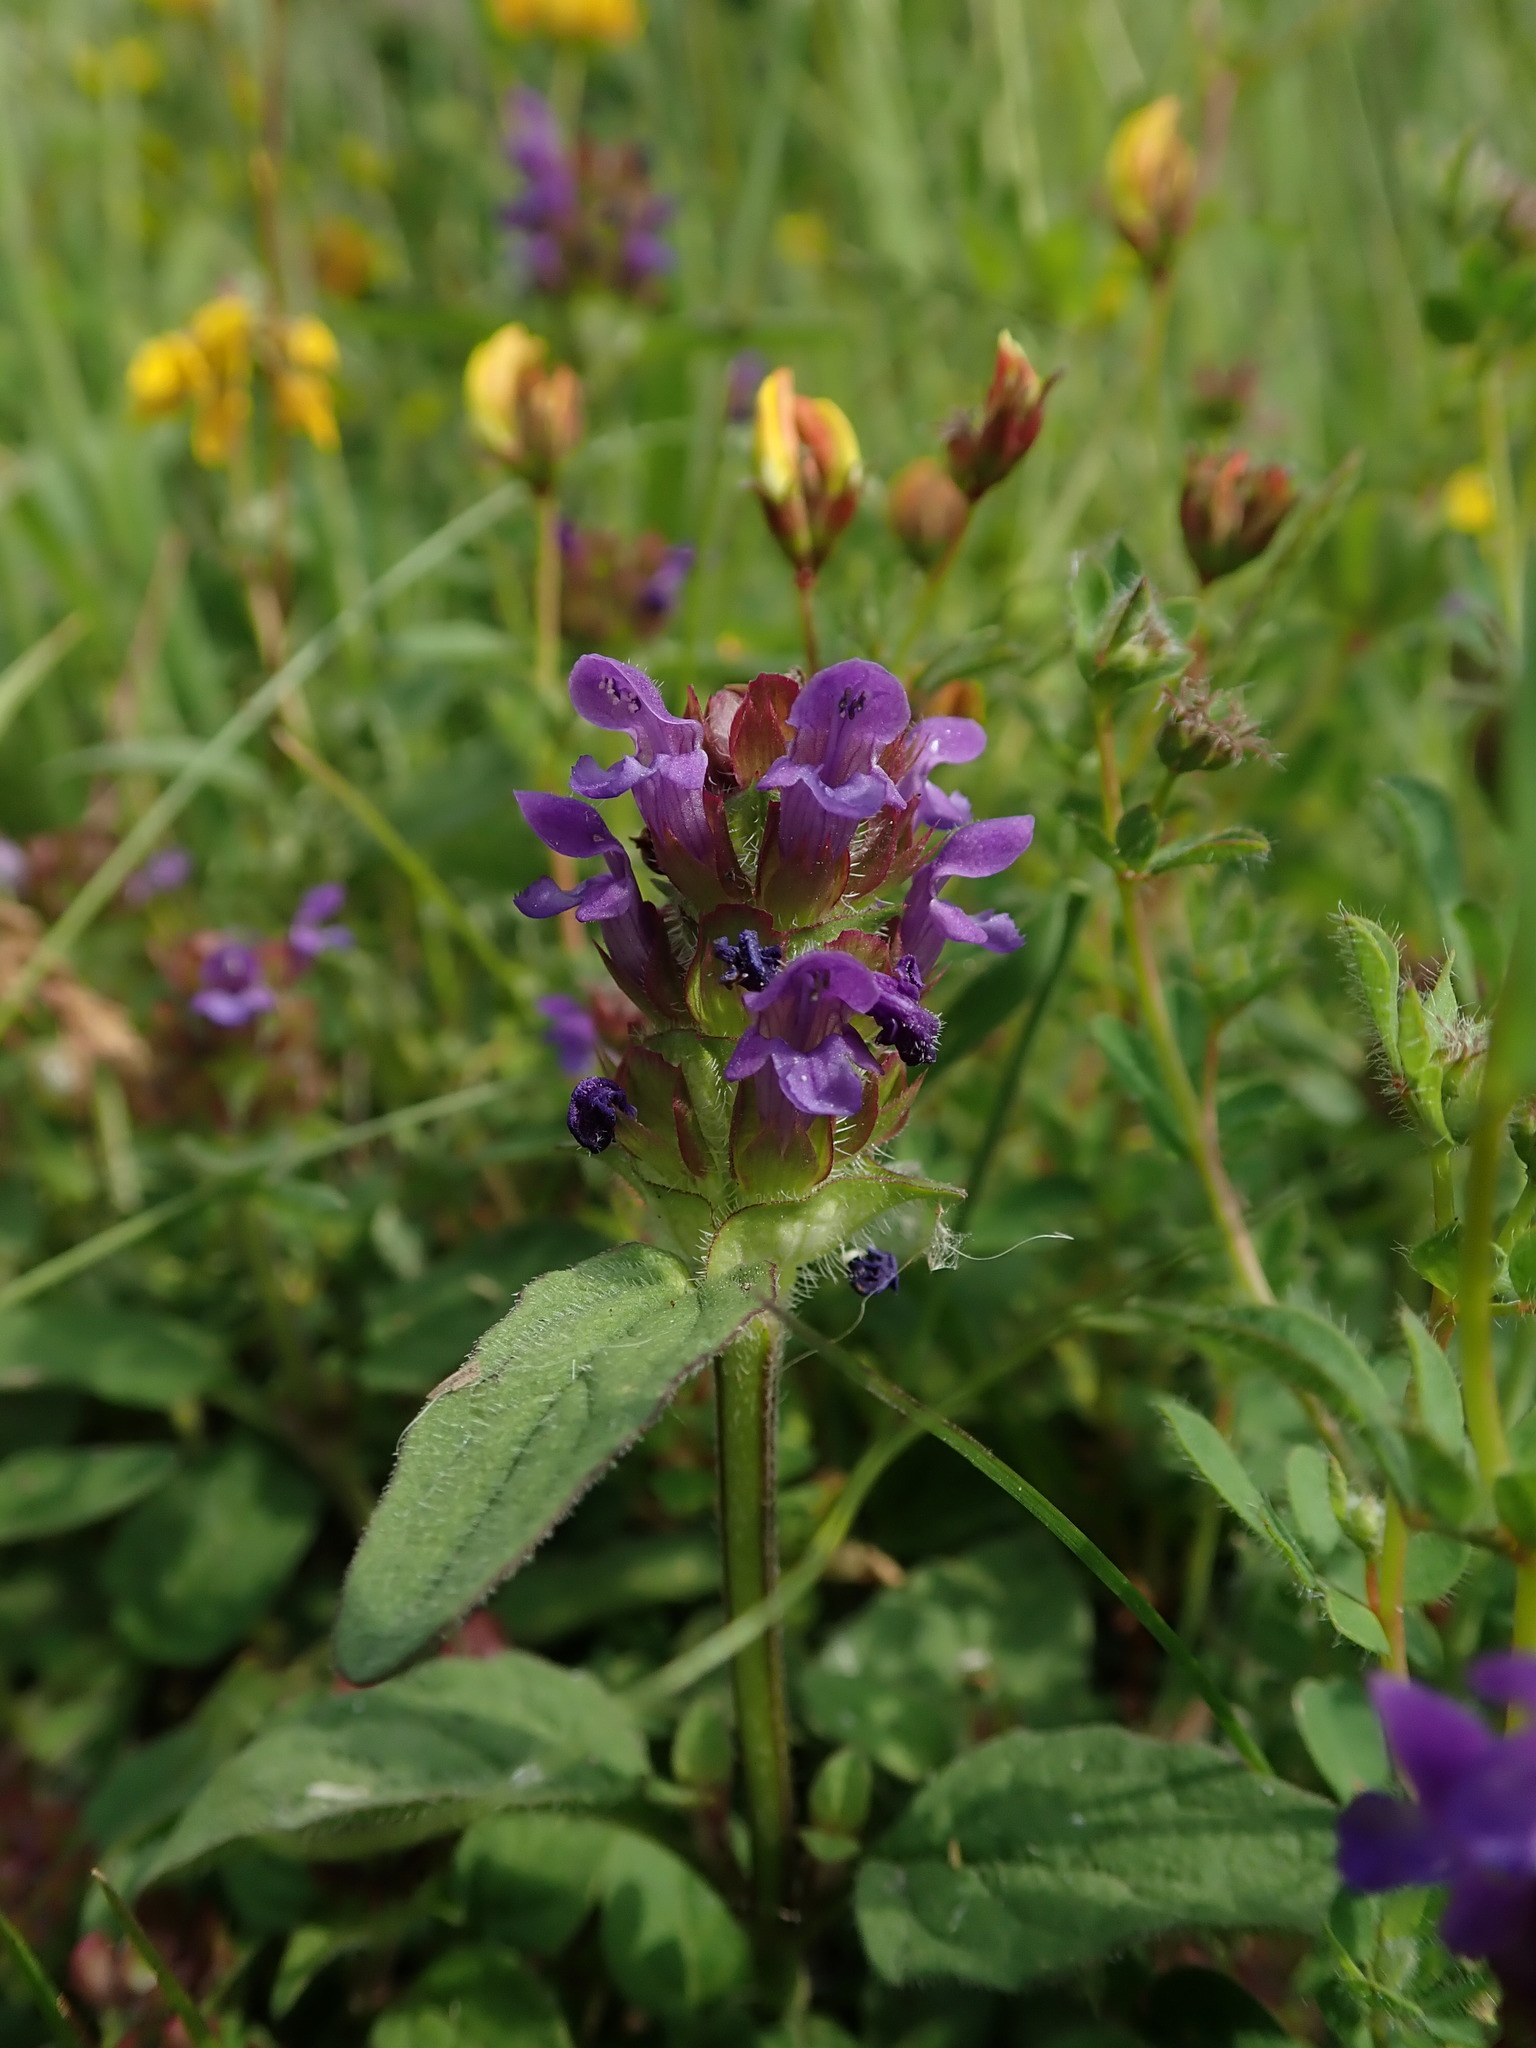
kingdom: Plantae
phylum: Tracheophyta
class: Magnoliopsida
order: Lamiales
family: Lamiaceae
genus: Prunella
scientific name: Prunella vulgaris
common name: Heal-all
